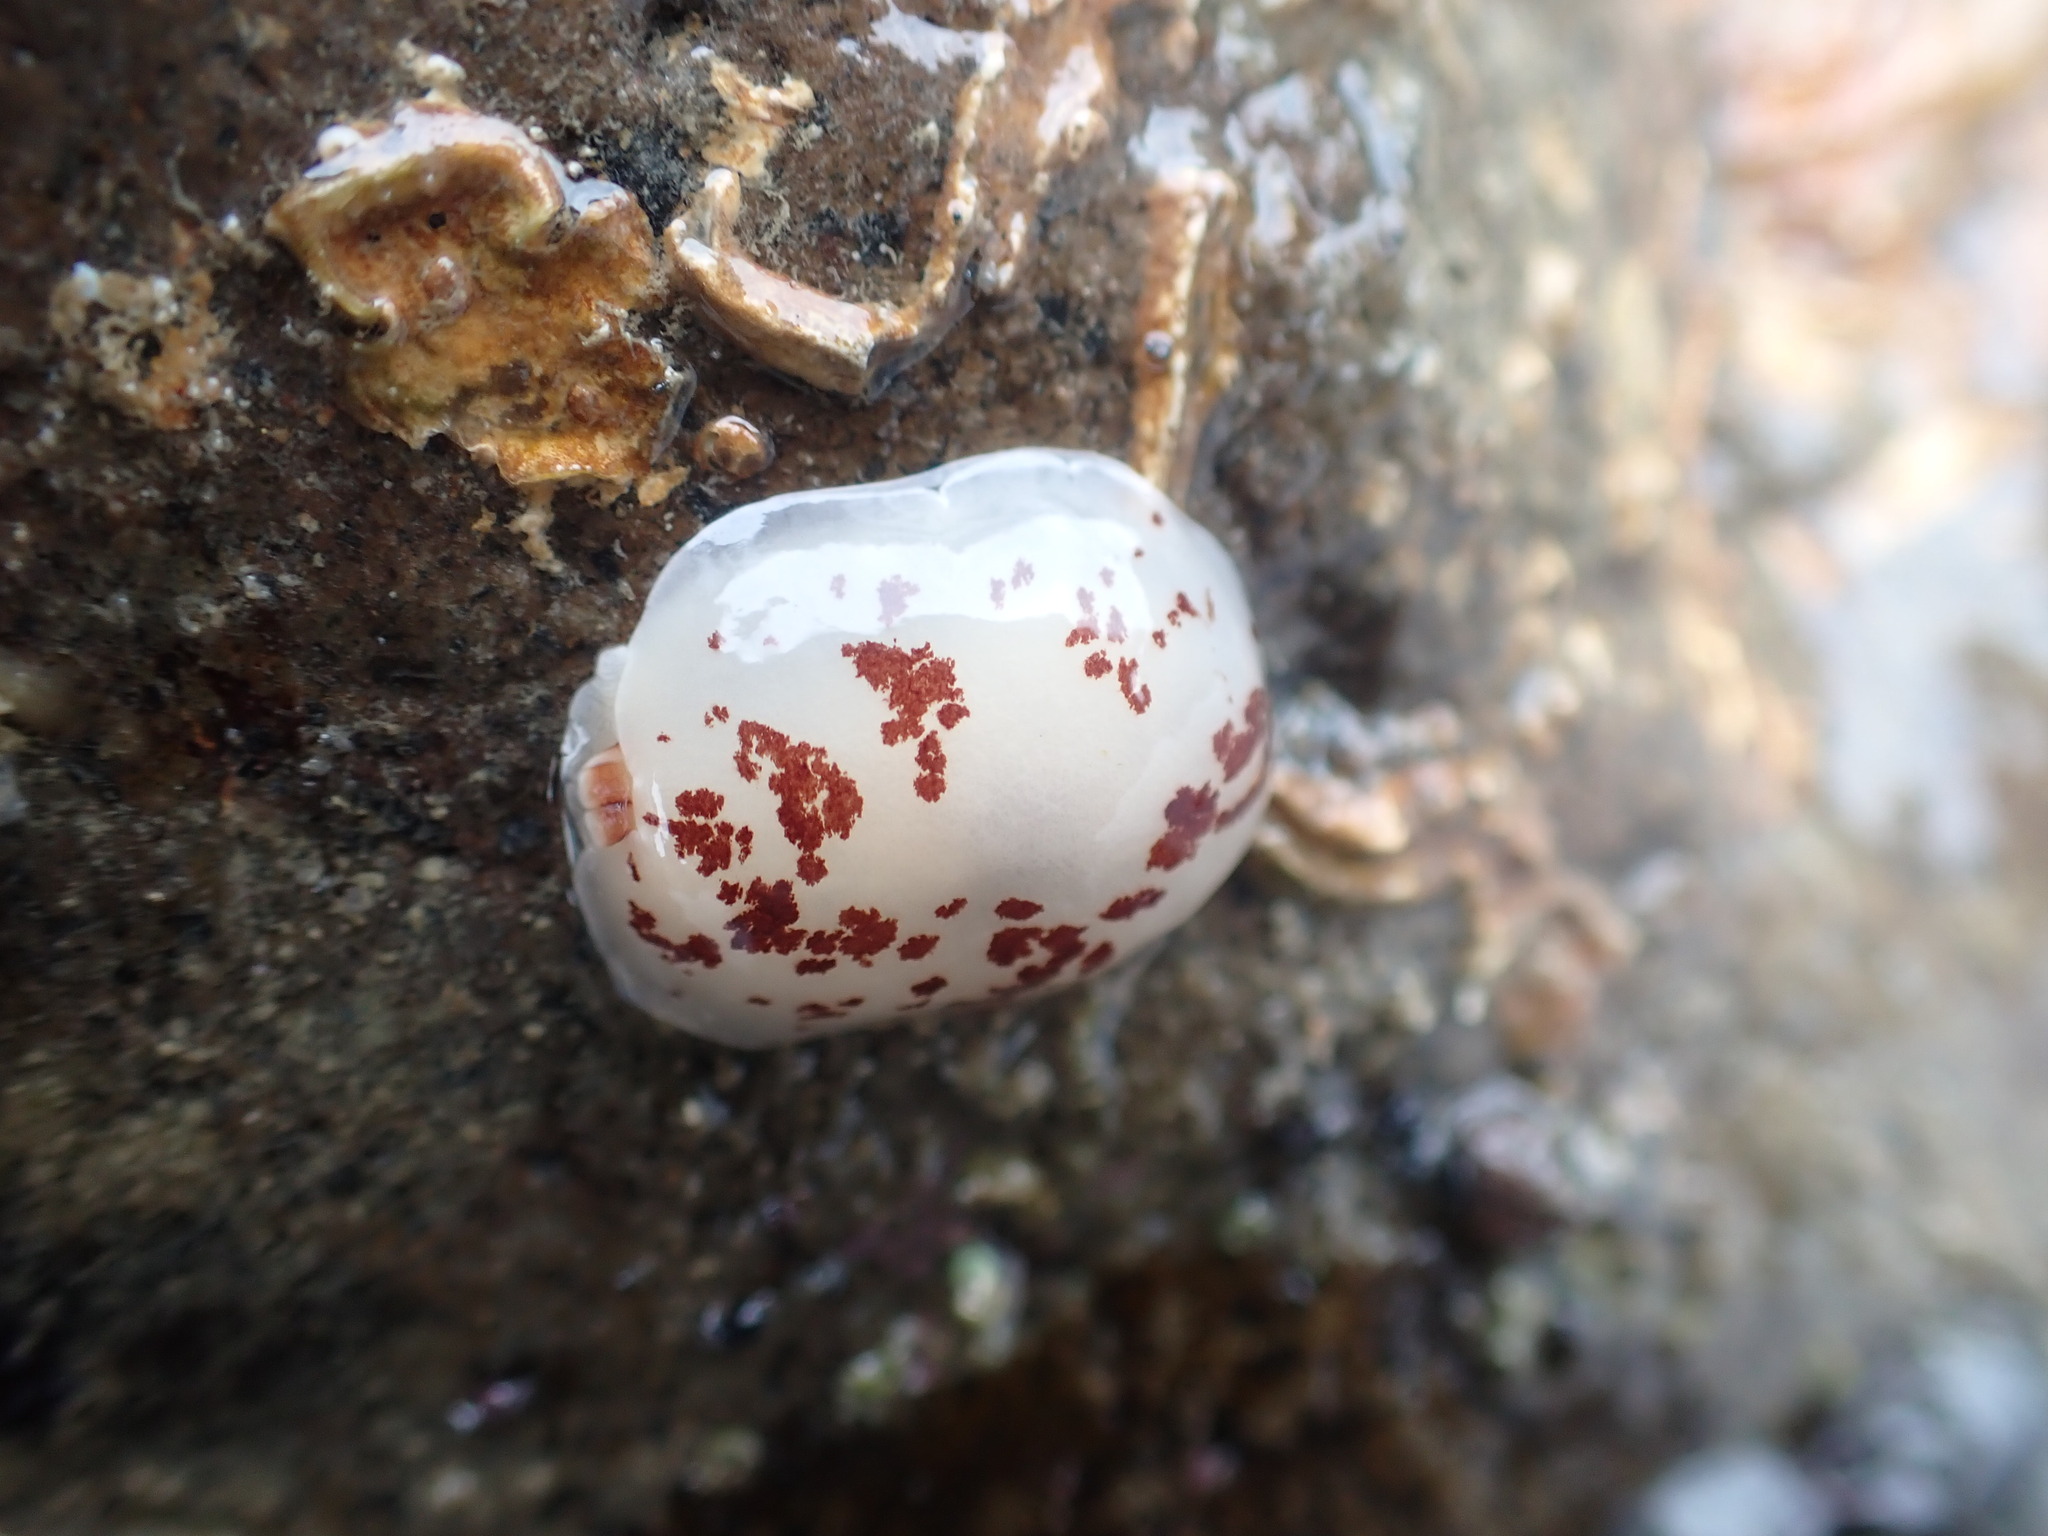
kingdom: Animalia
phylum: Mollusca
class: Gastropoda
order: Pleurobranchida
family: Pleurobranchidae
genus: Berthella
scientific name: Berthella ornata
